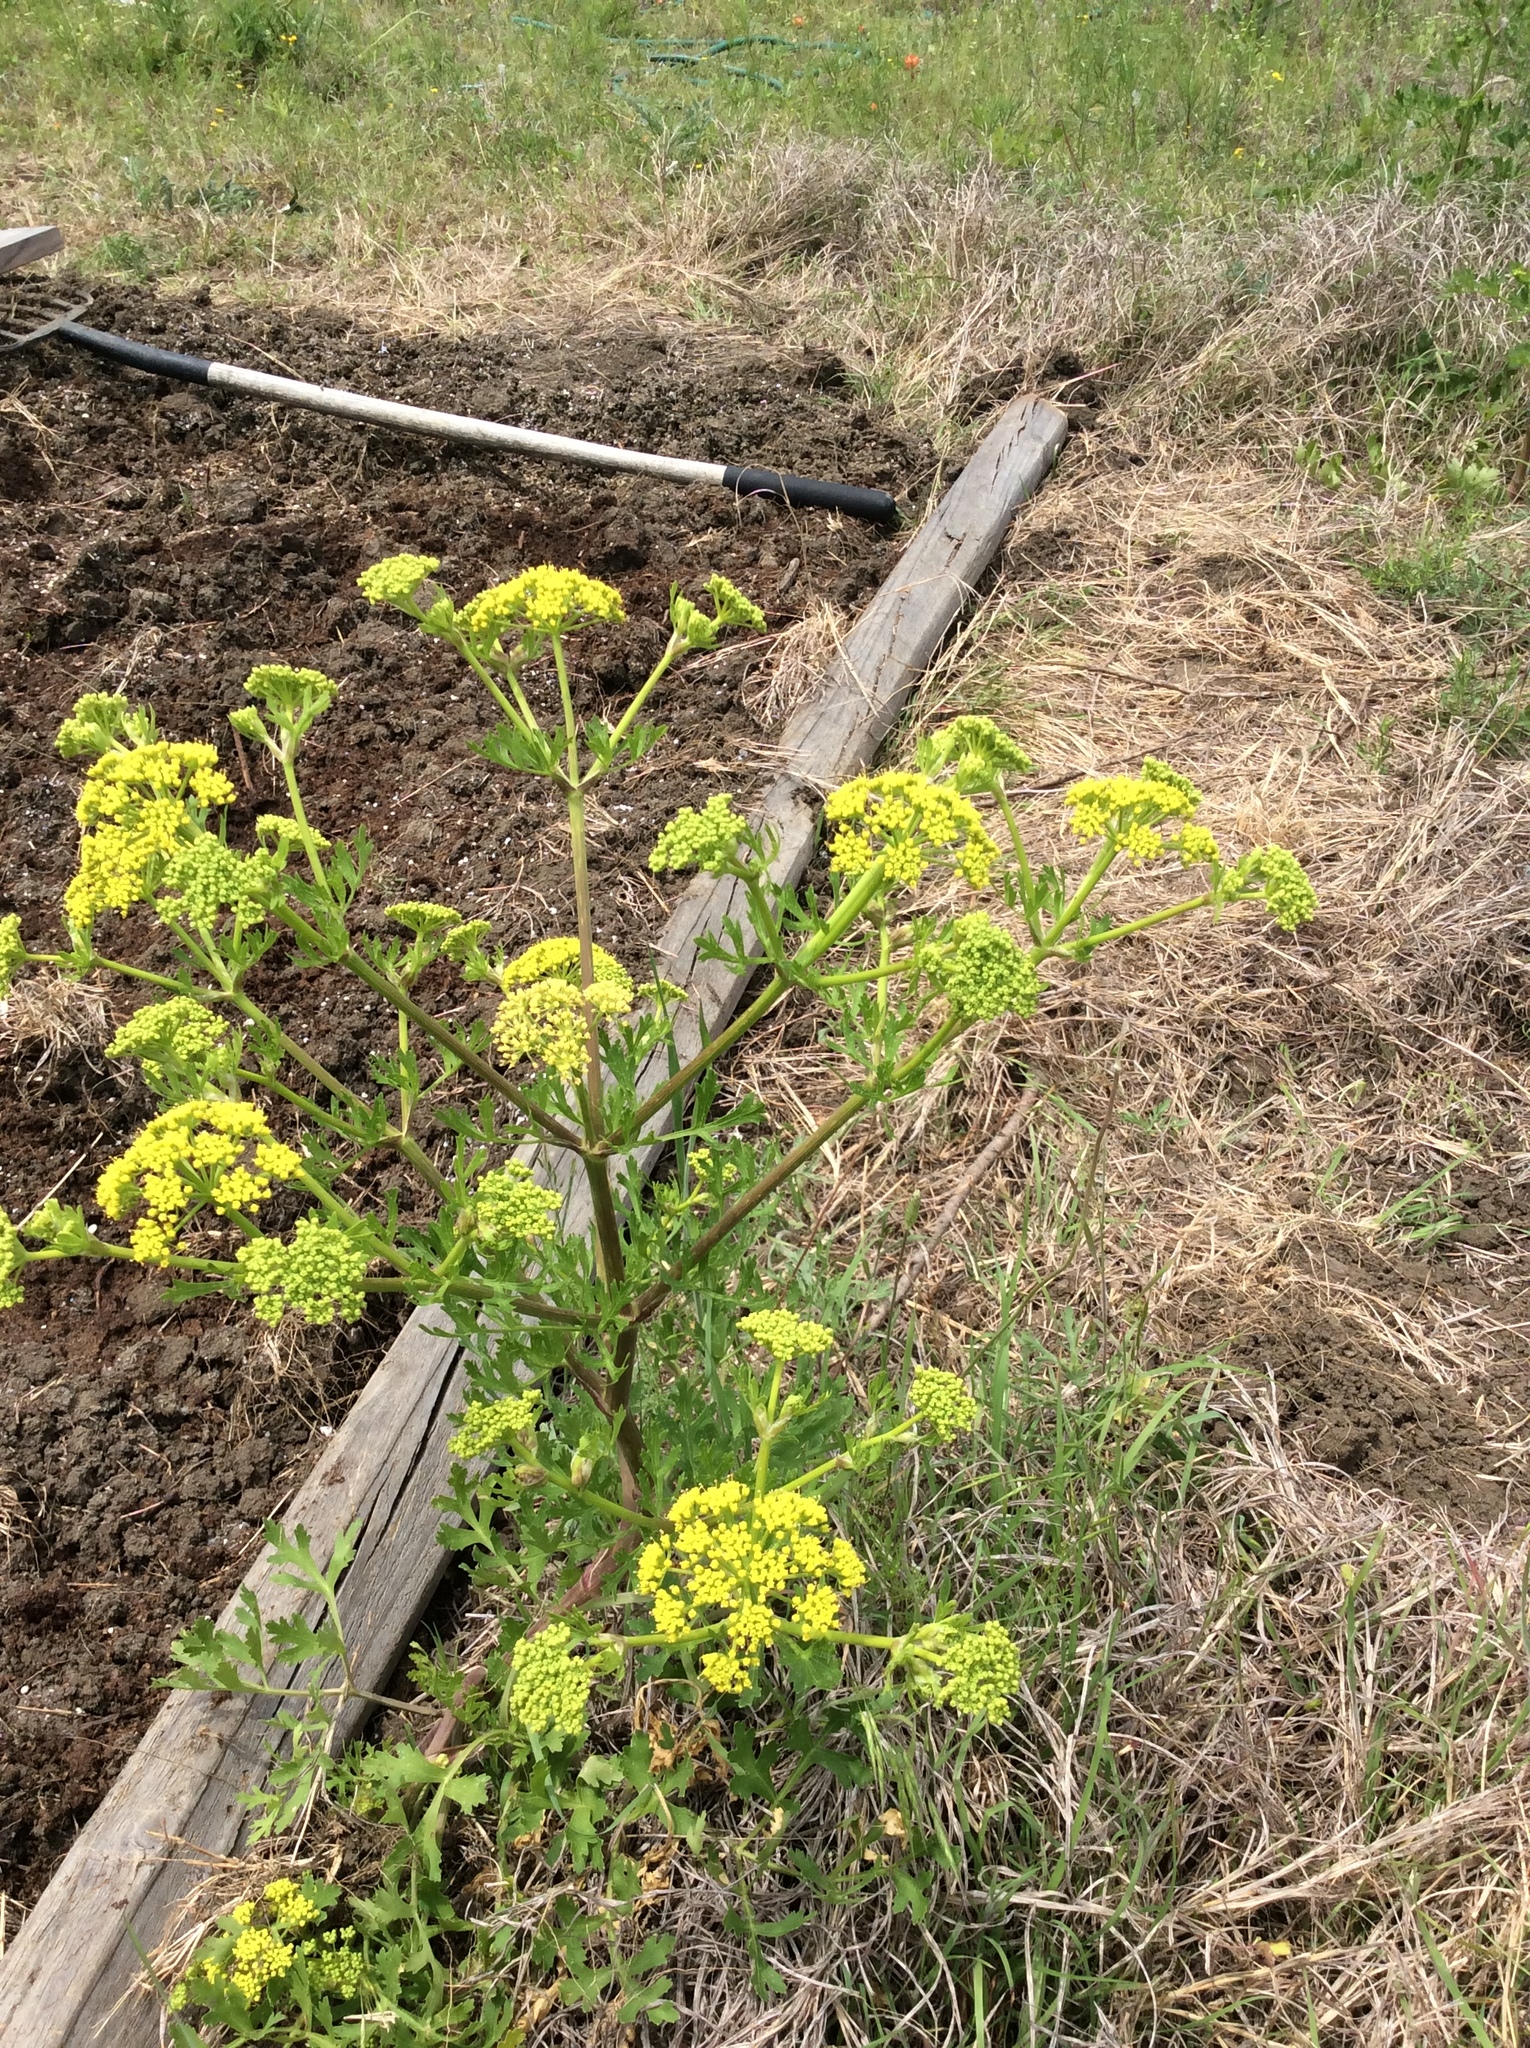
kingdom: Plantae
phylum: Tracheophyta
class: Magnoliopsida
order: Apiales
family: Apiaceae
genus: Polytaenia
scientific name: Polytaenia texana
